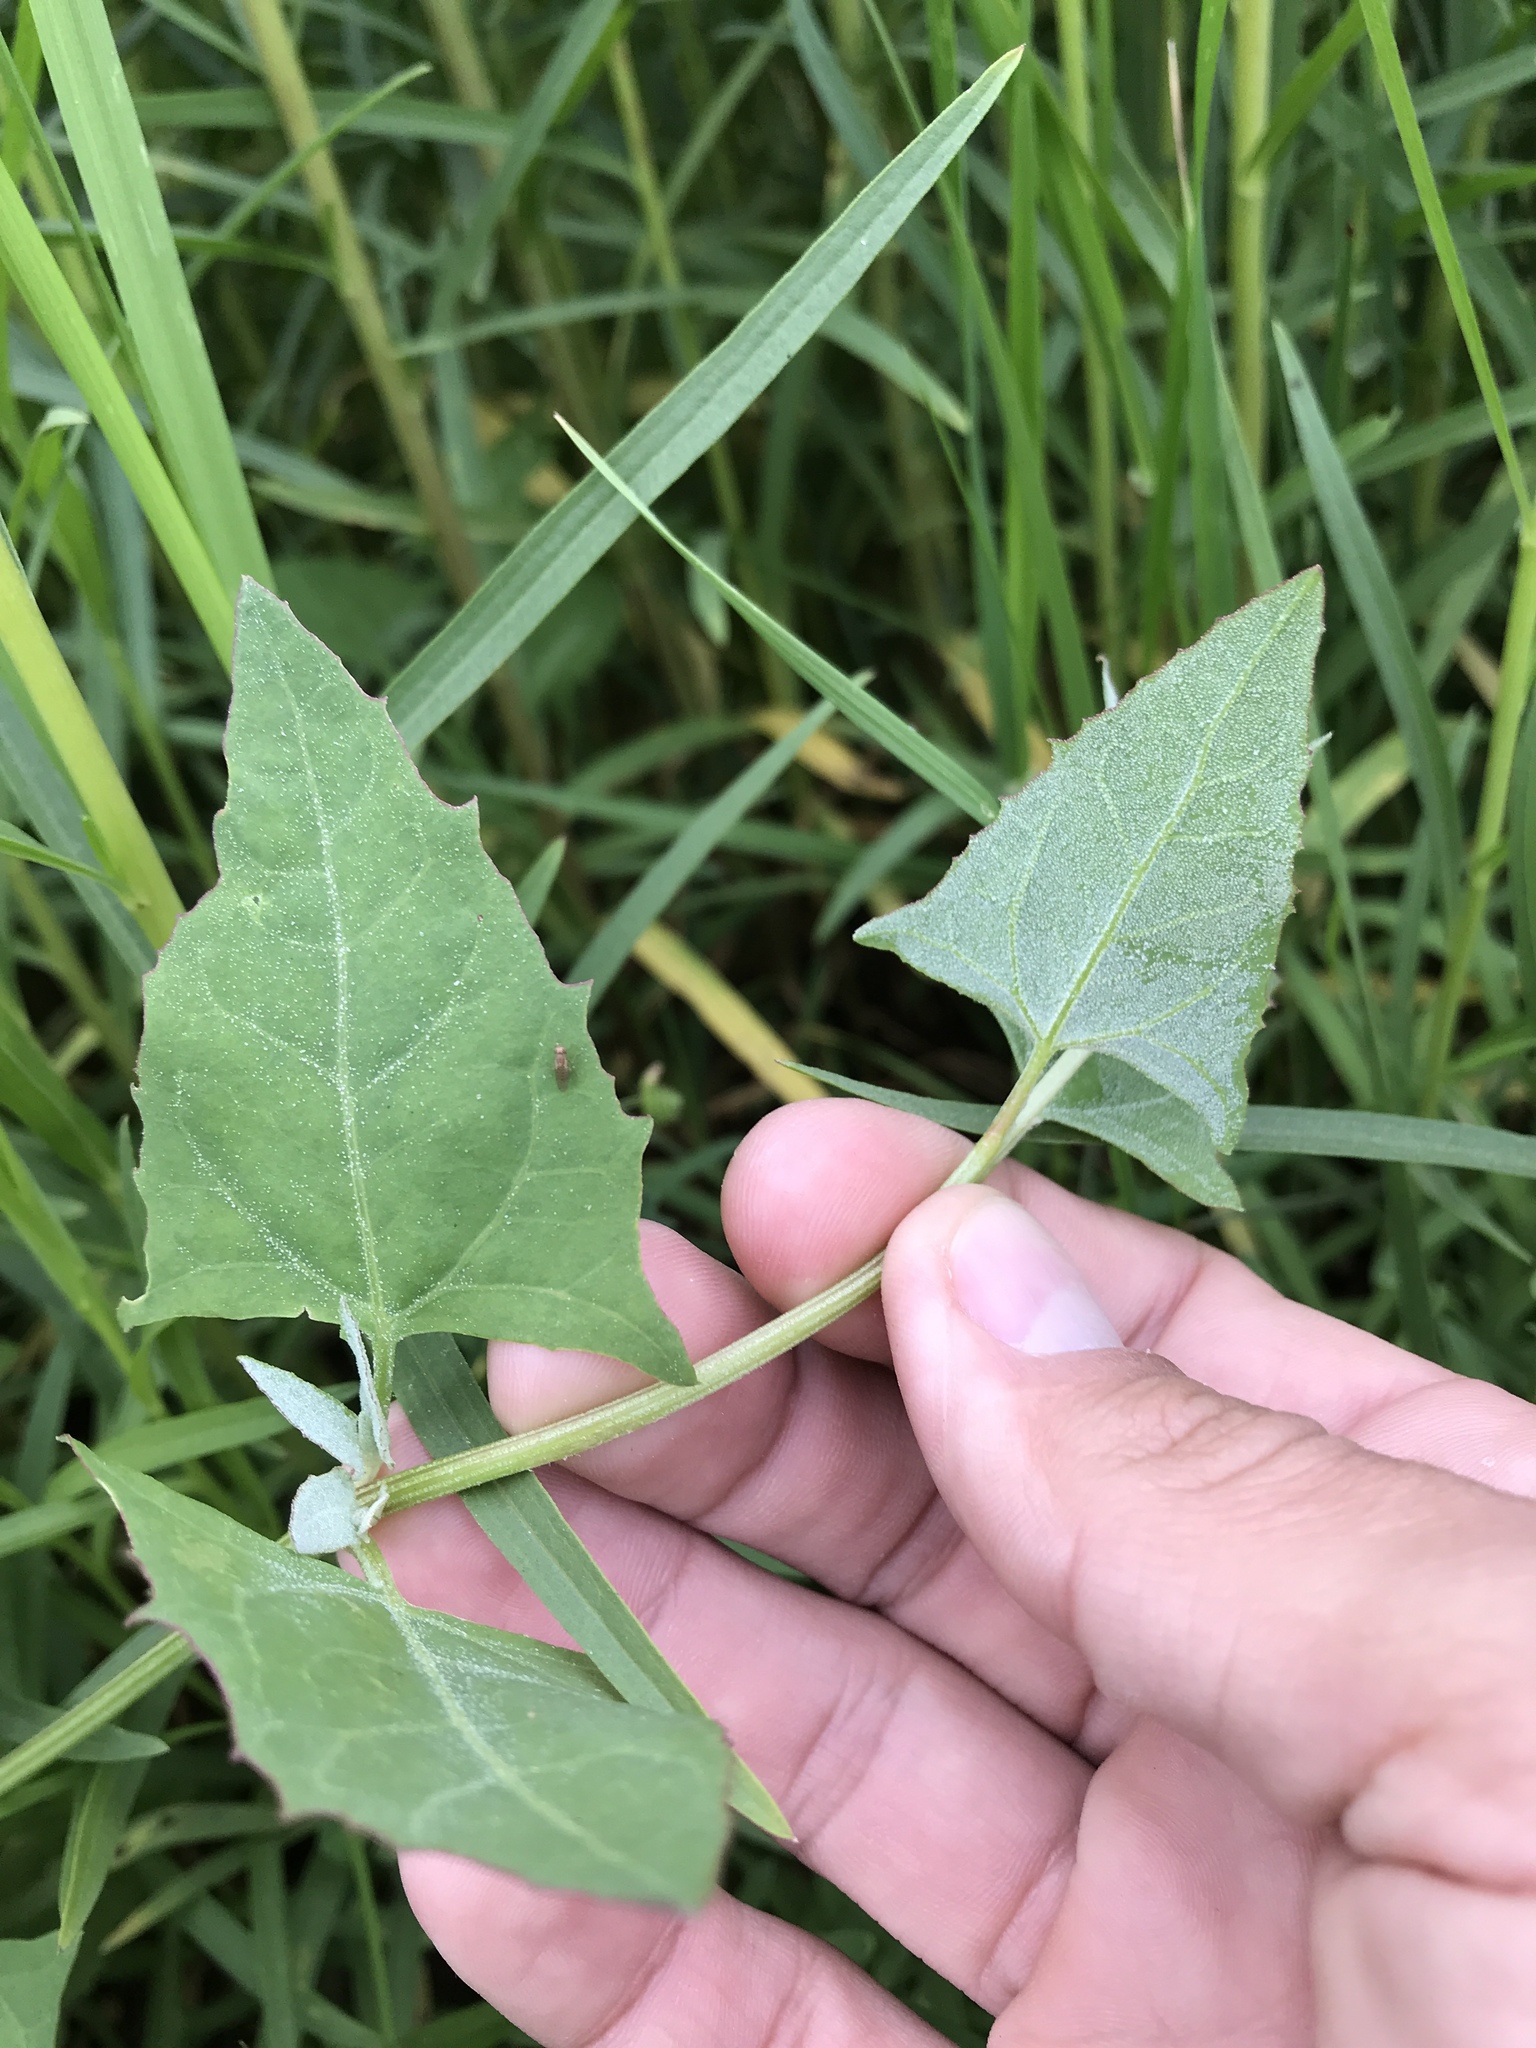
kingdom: Plantae
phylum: Tracheophyta
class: Magnoliopsida
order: Caryophyllales
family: Amaranthaceae
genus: Atriplex
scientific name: Atriplex prostrata
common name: Spear-leaved orache
